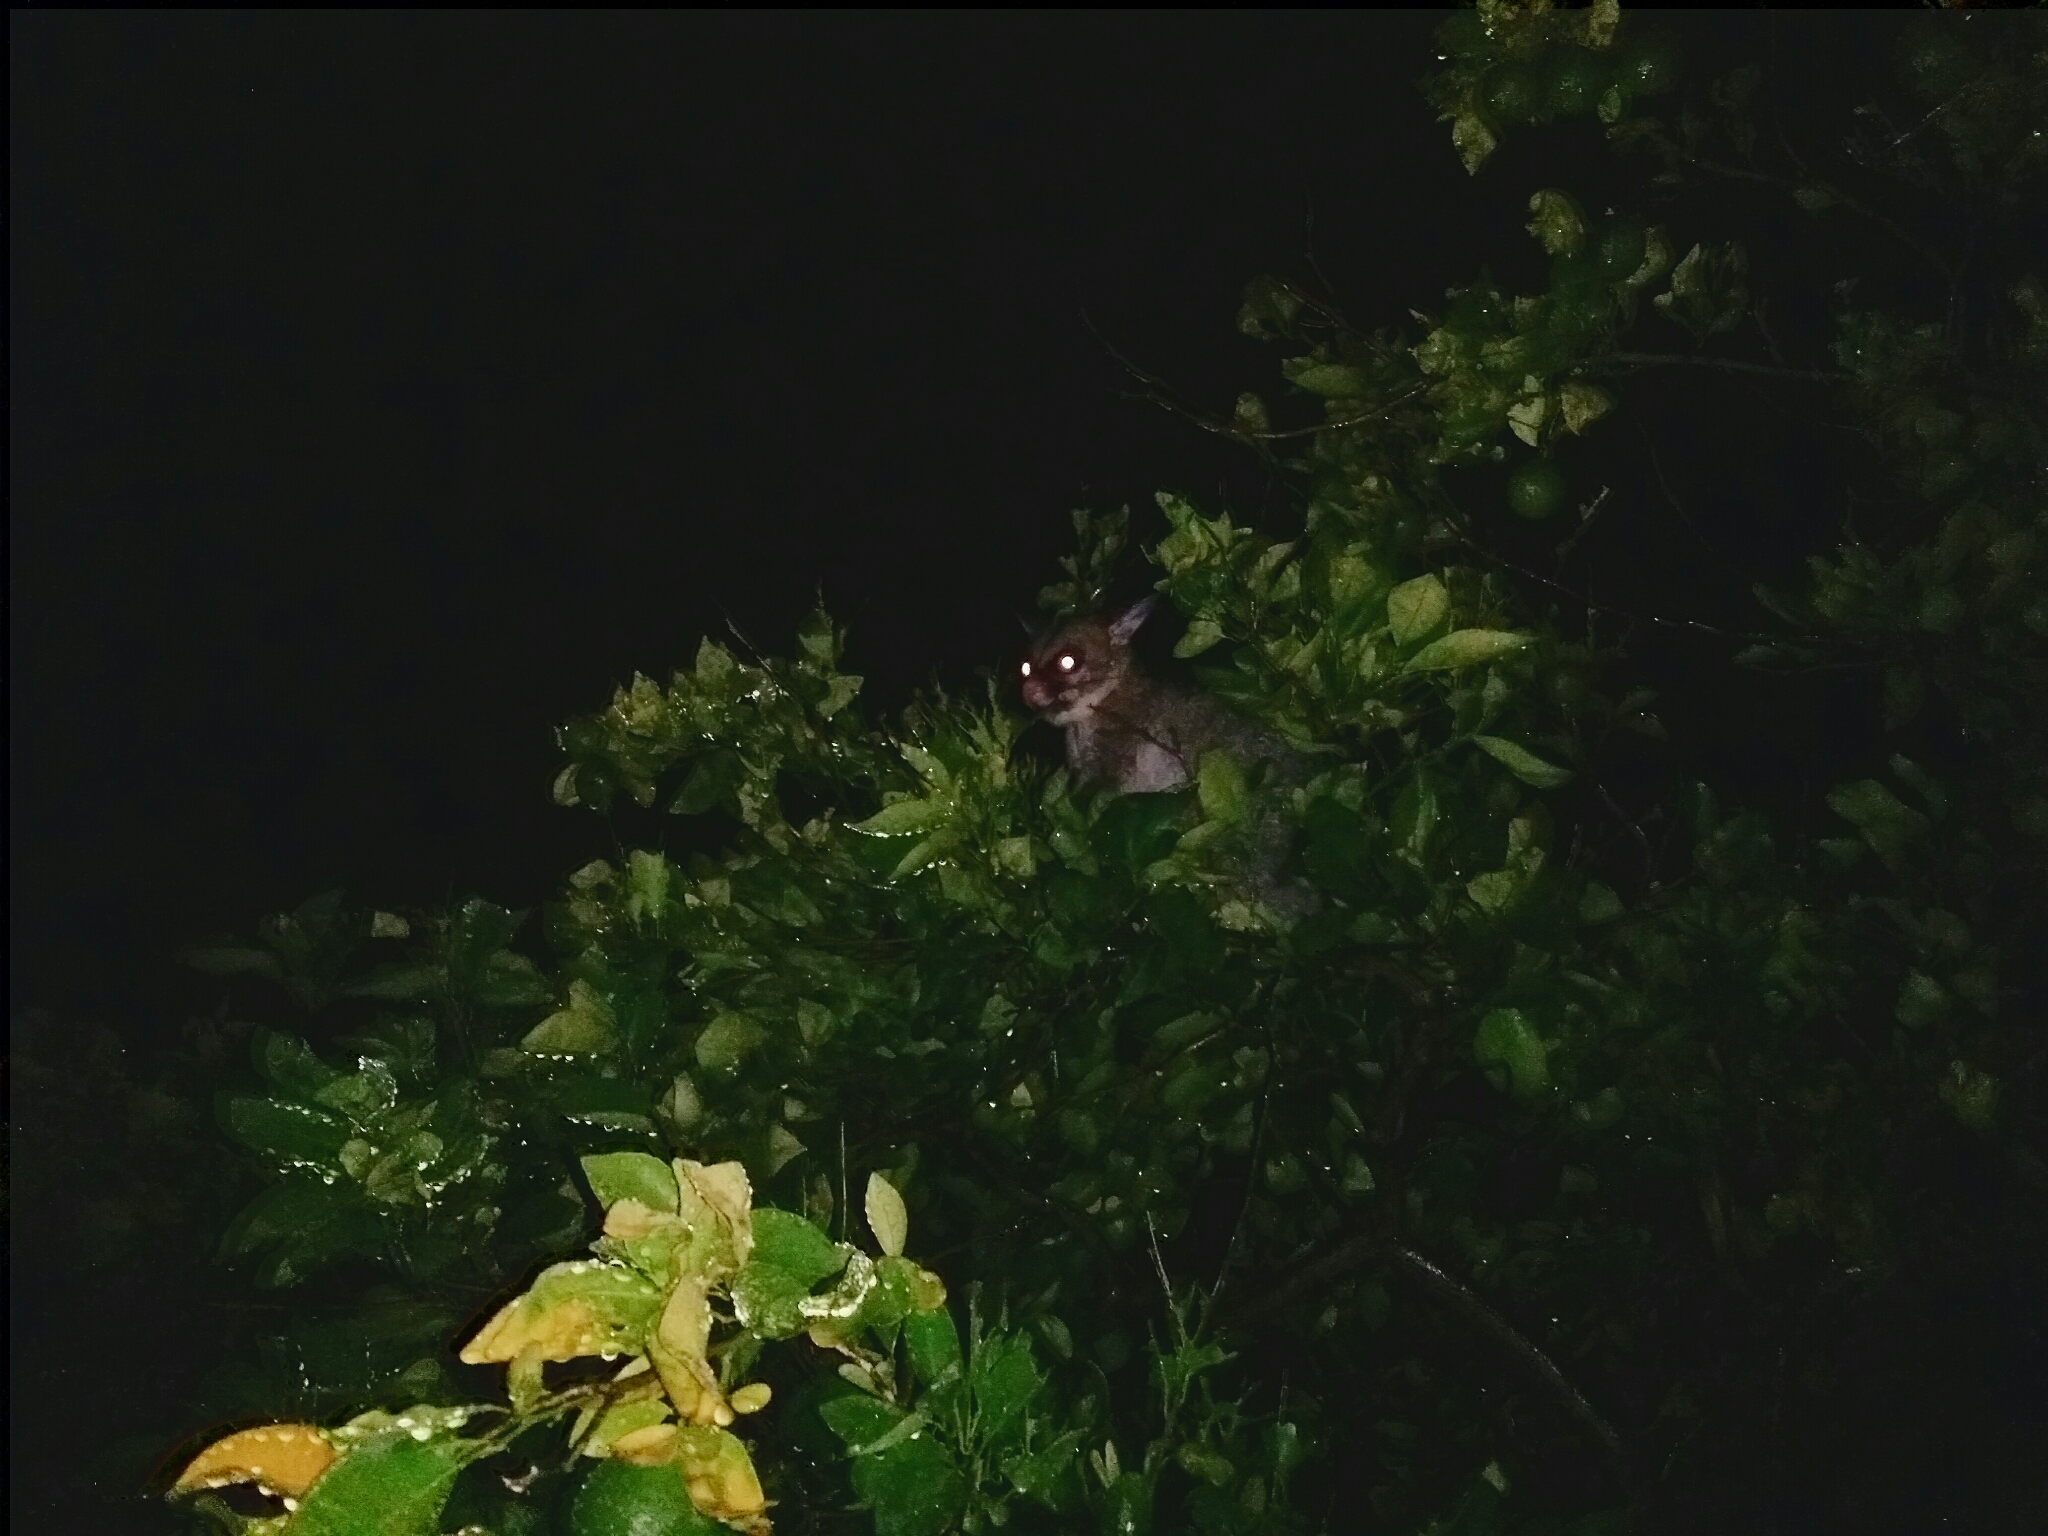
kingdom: Animalia
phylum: Chordata
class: Mammalia
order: Diprotodontia
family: Phalangeridae
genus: Trichosurus
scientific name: Trichosurus vulpecula
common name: Common brushtail
